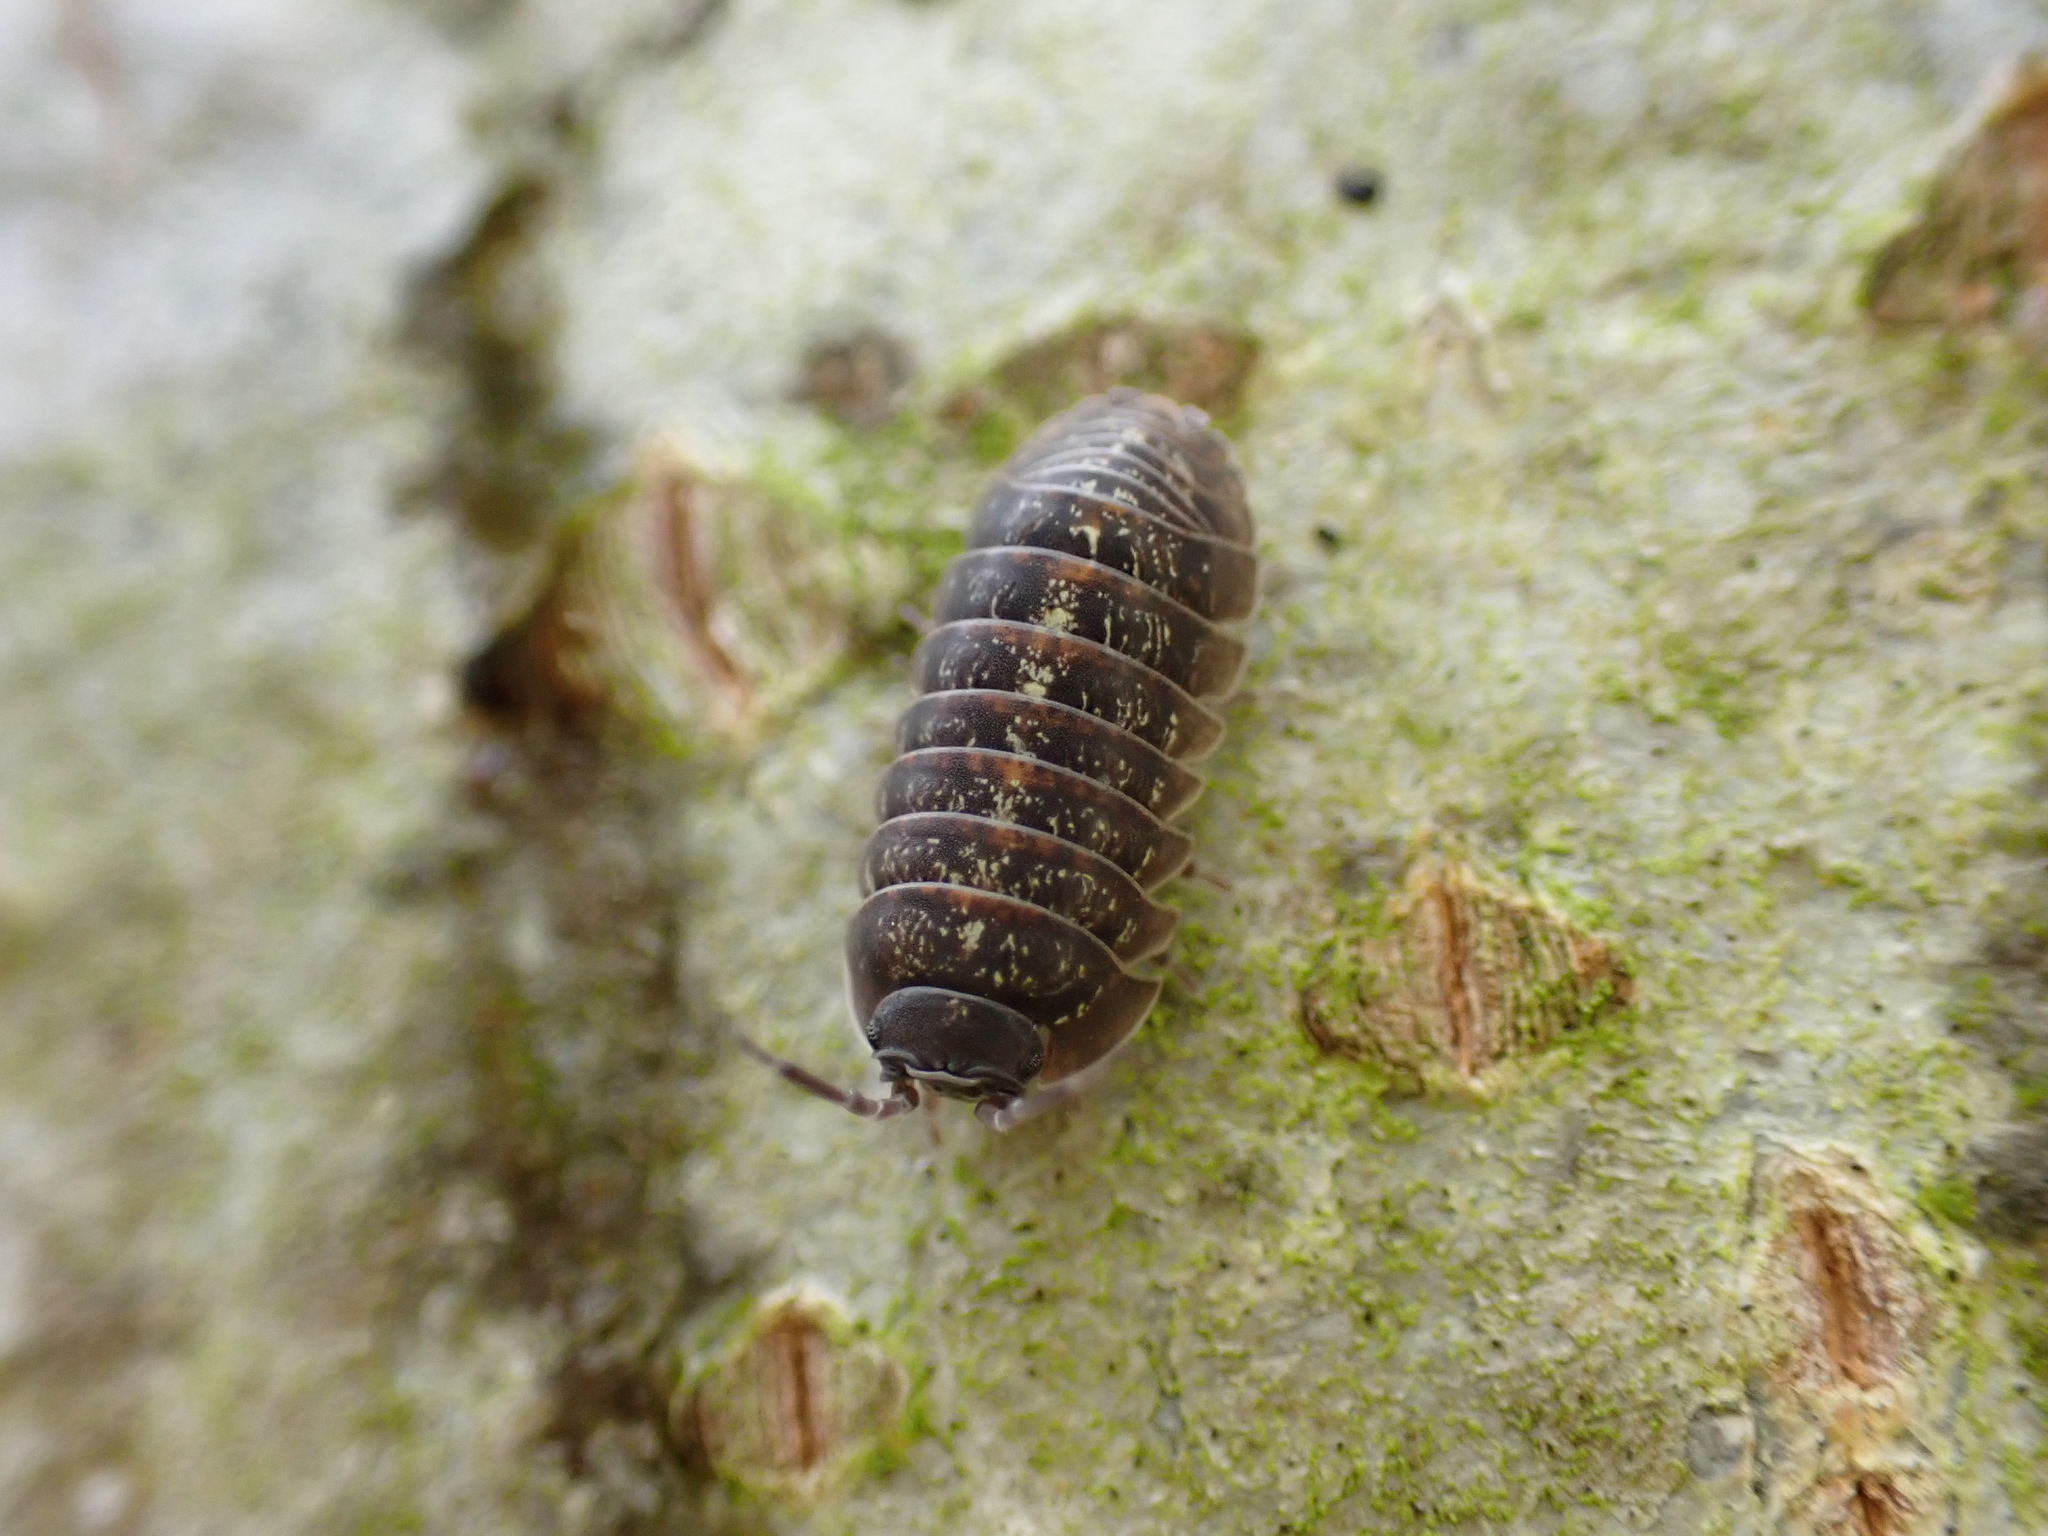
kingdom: Animalia
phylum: Arthropoda
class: Malacostraca
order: Isopoda
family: Armadillidiidae
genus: Armadillidium
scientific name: Armadillidium opacum
